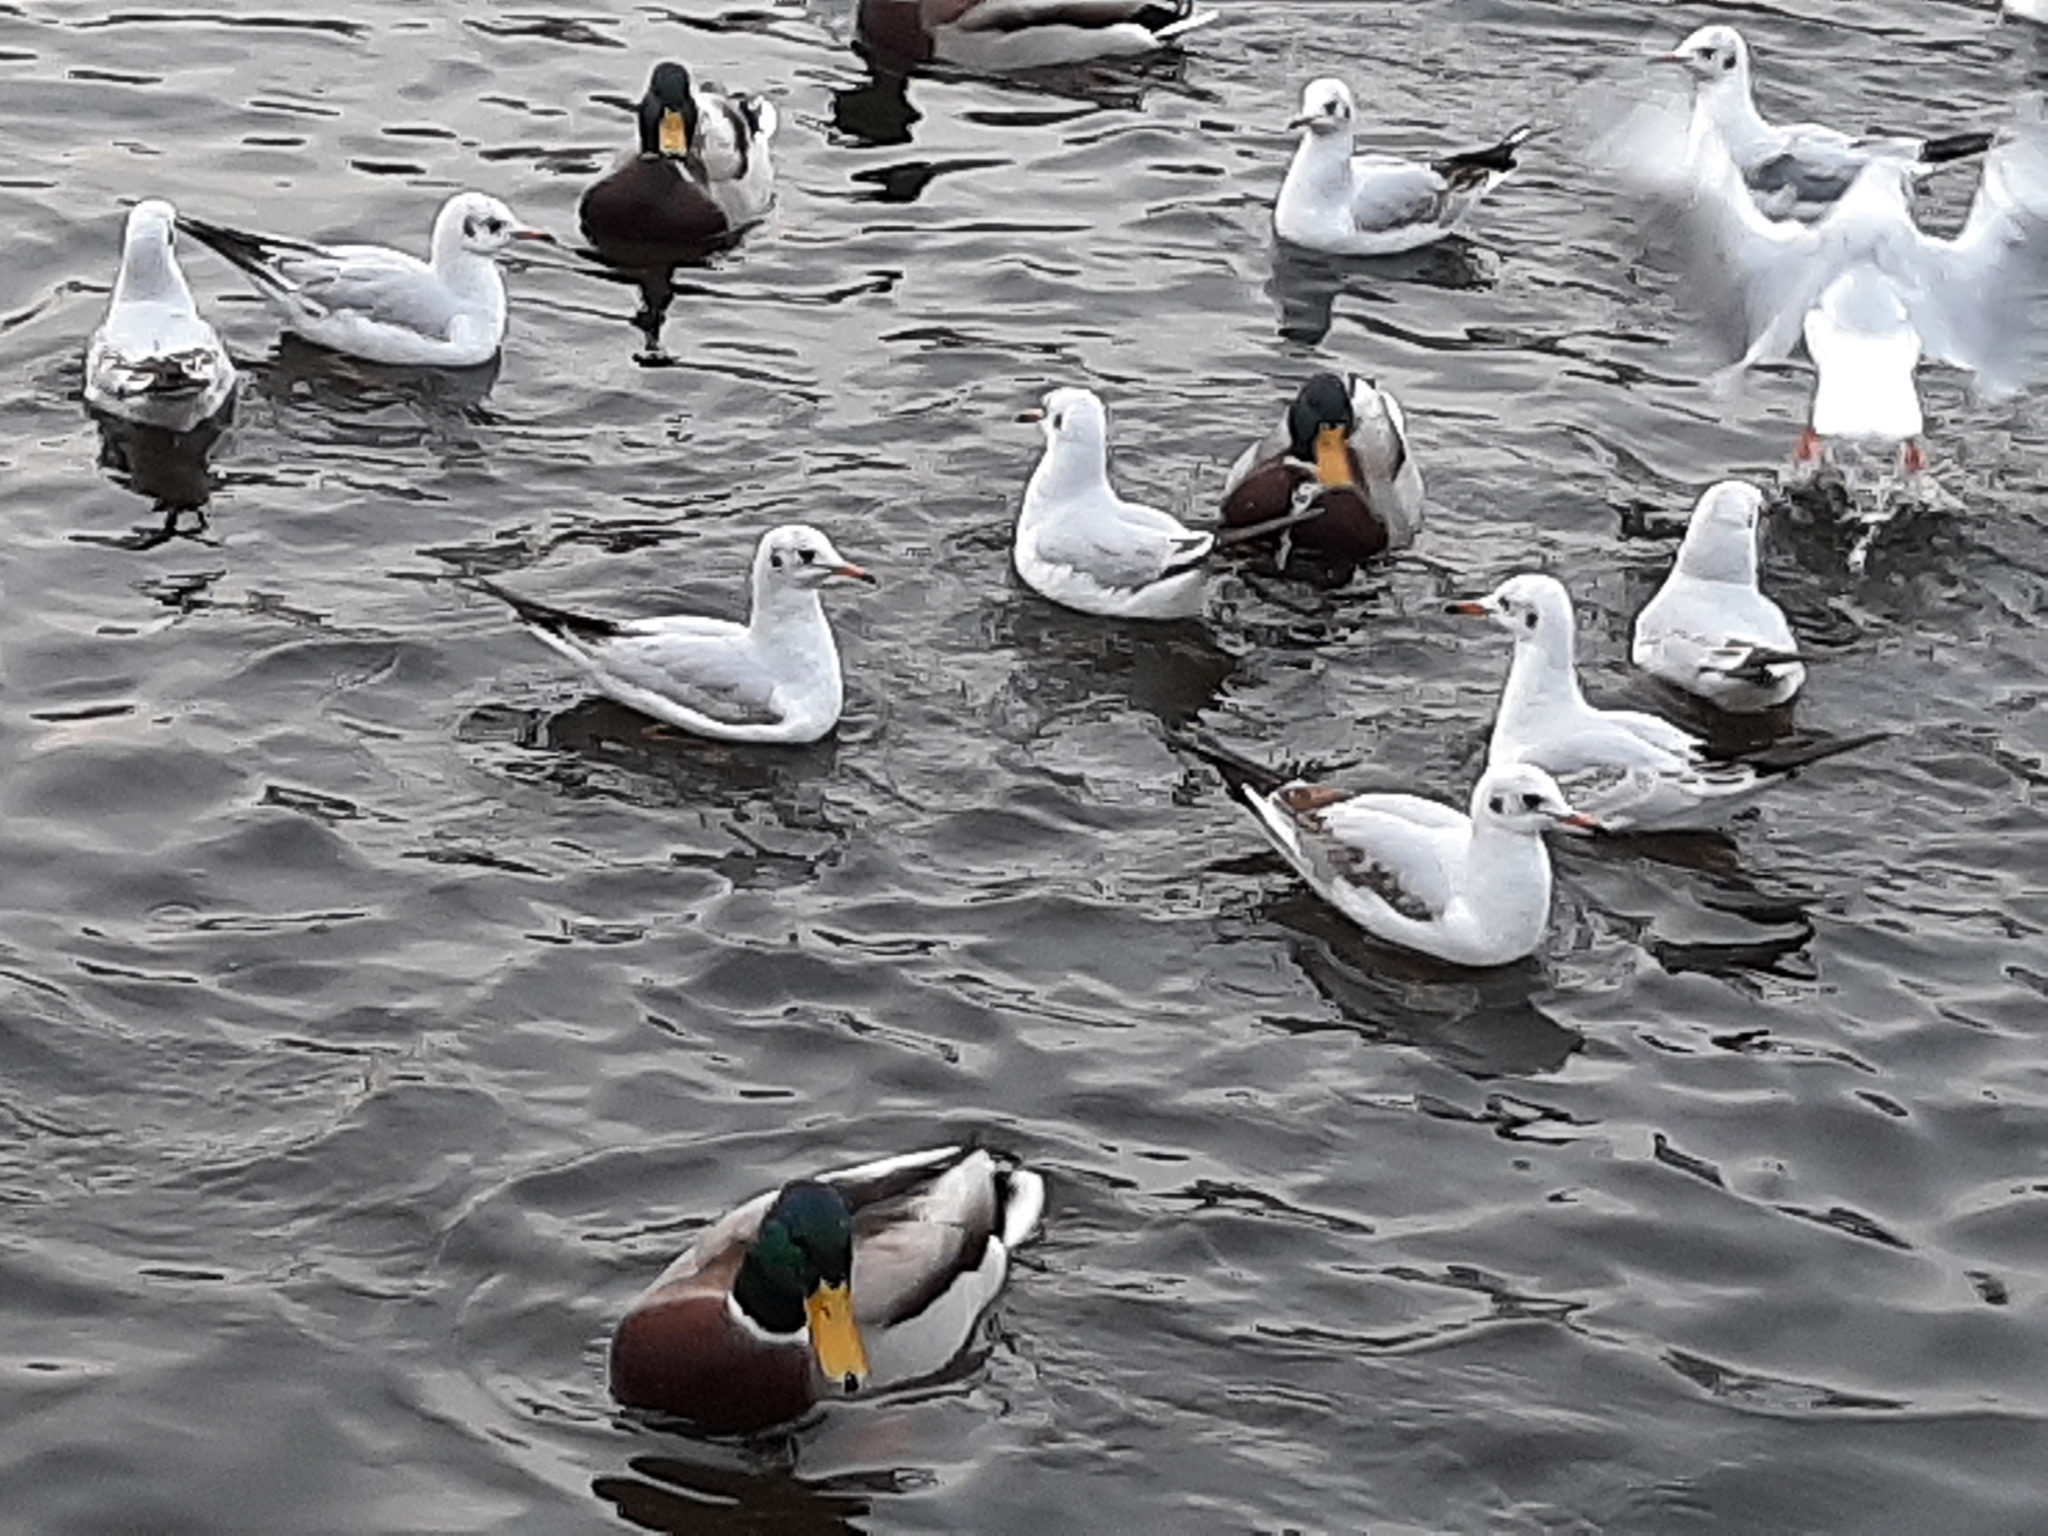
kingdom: Animalia
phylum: Chordata
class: Aves
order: Charadriiformes
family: Laridae
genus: Chroicocephalus
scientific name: Chroicocephalus ridibundus
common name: Black-headed gull
